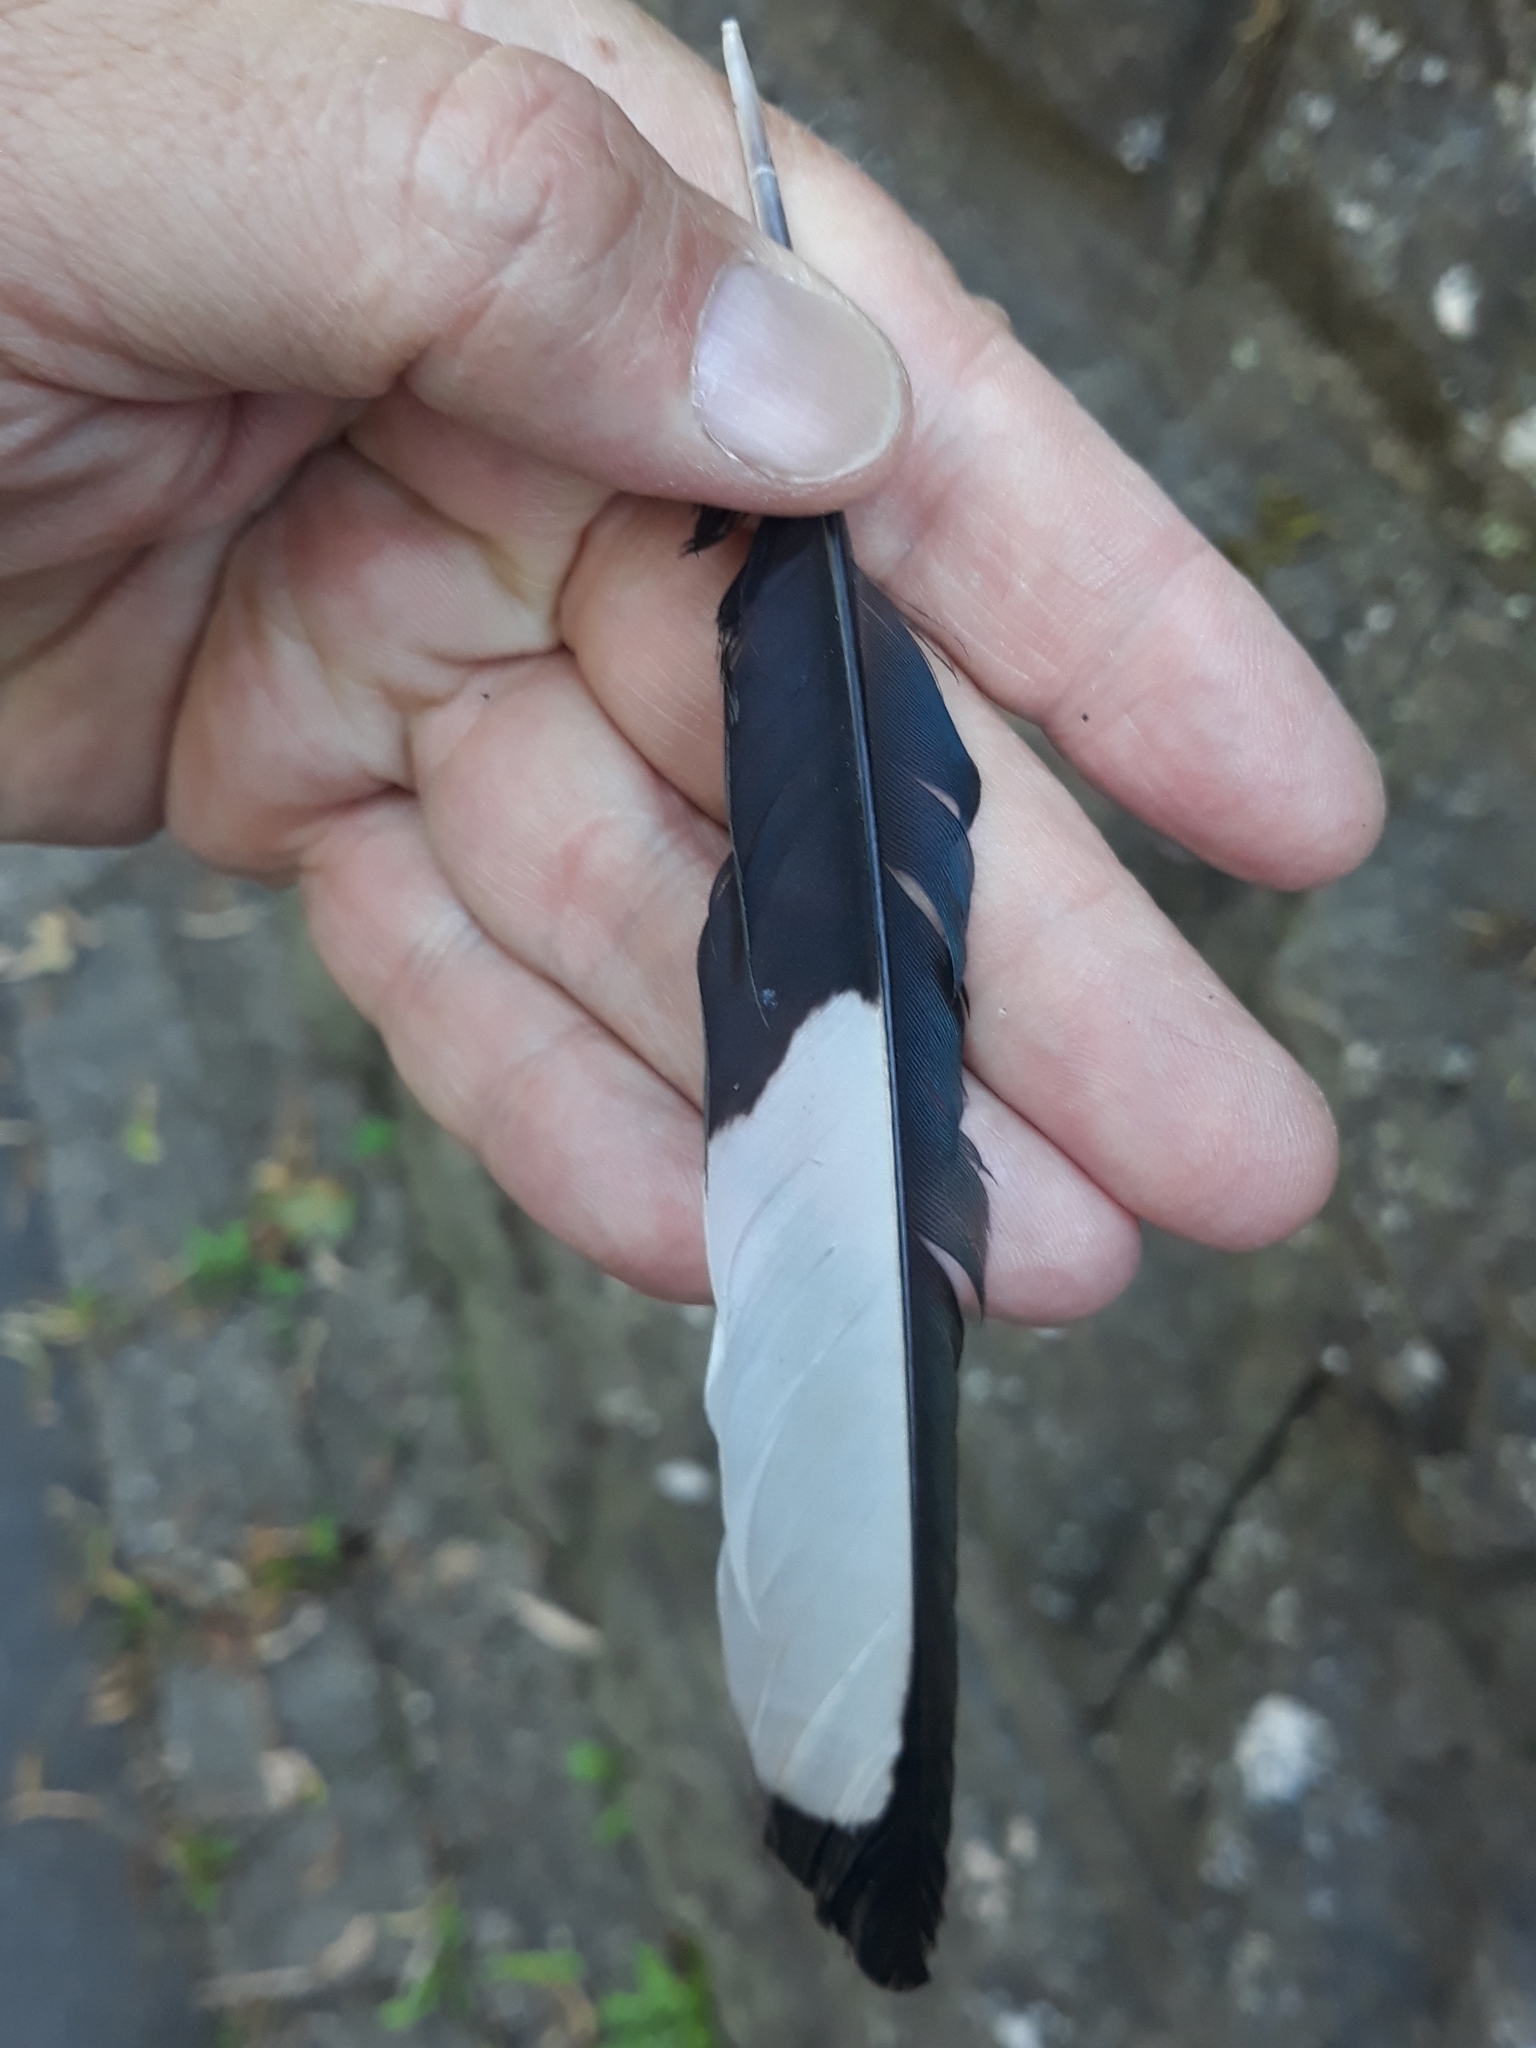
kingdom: Animalia
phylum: Chordata
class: Aves
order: Passeriformes
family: Corvidae
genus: Pica
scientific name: Pica pica
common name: Eurasian magpie
